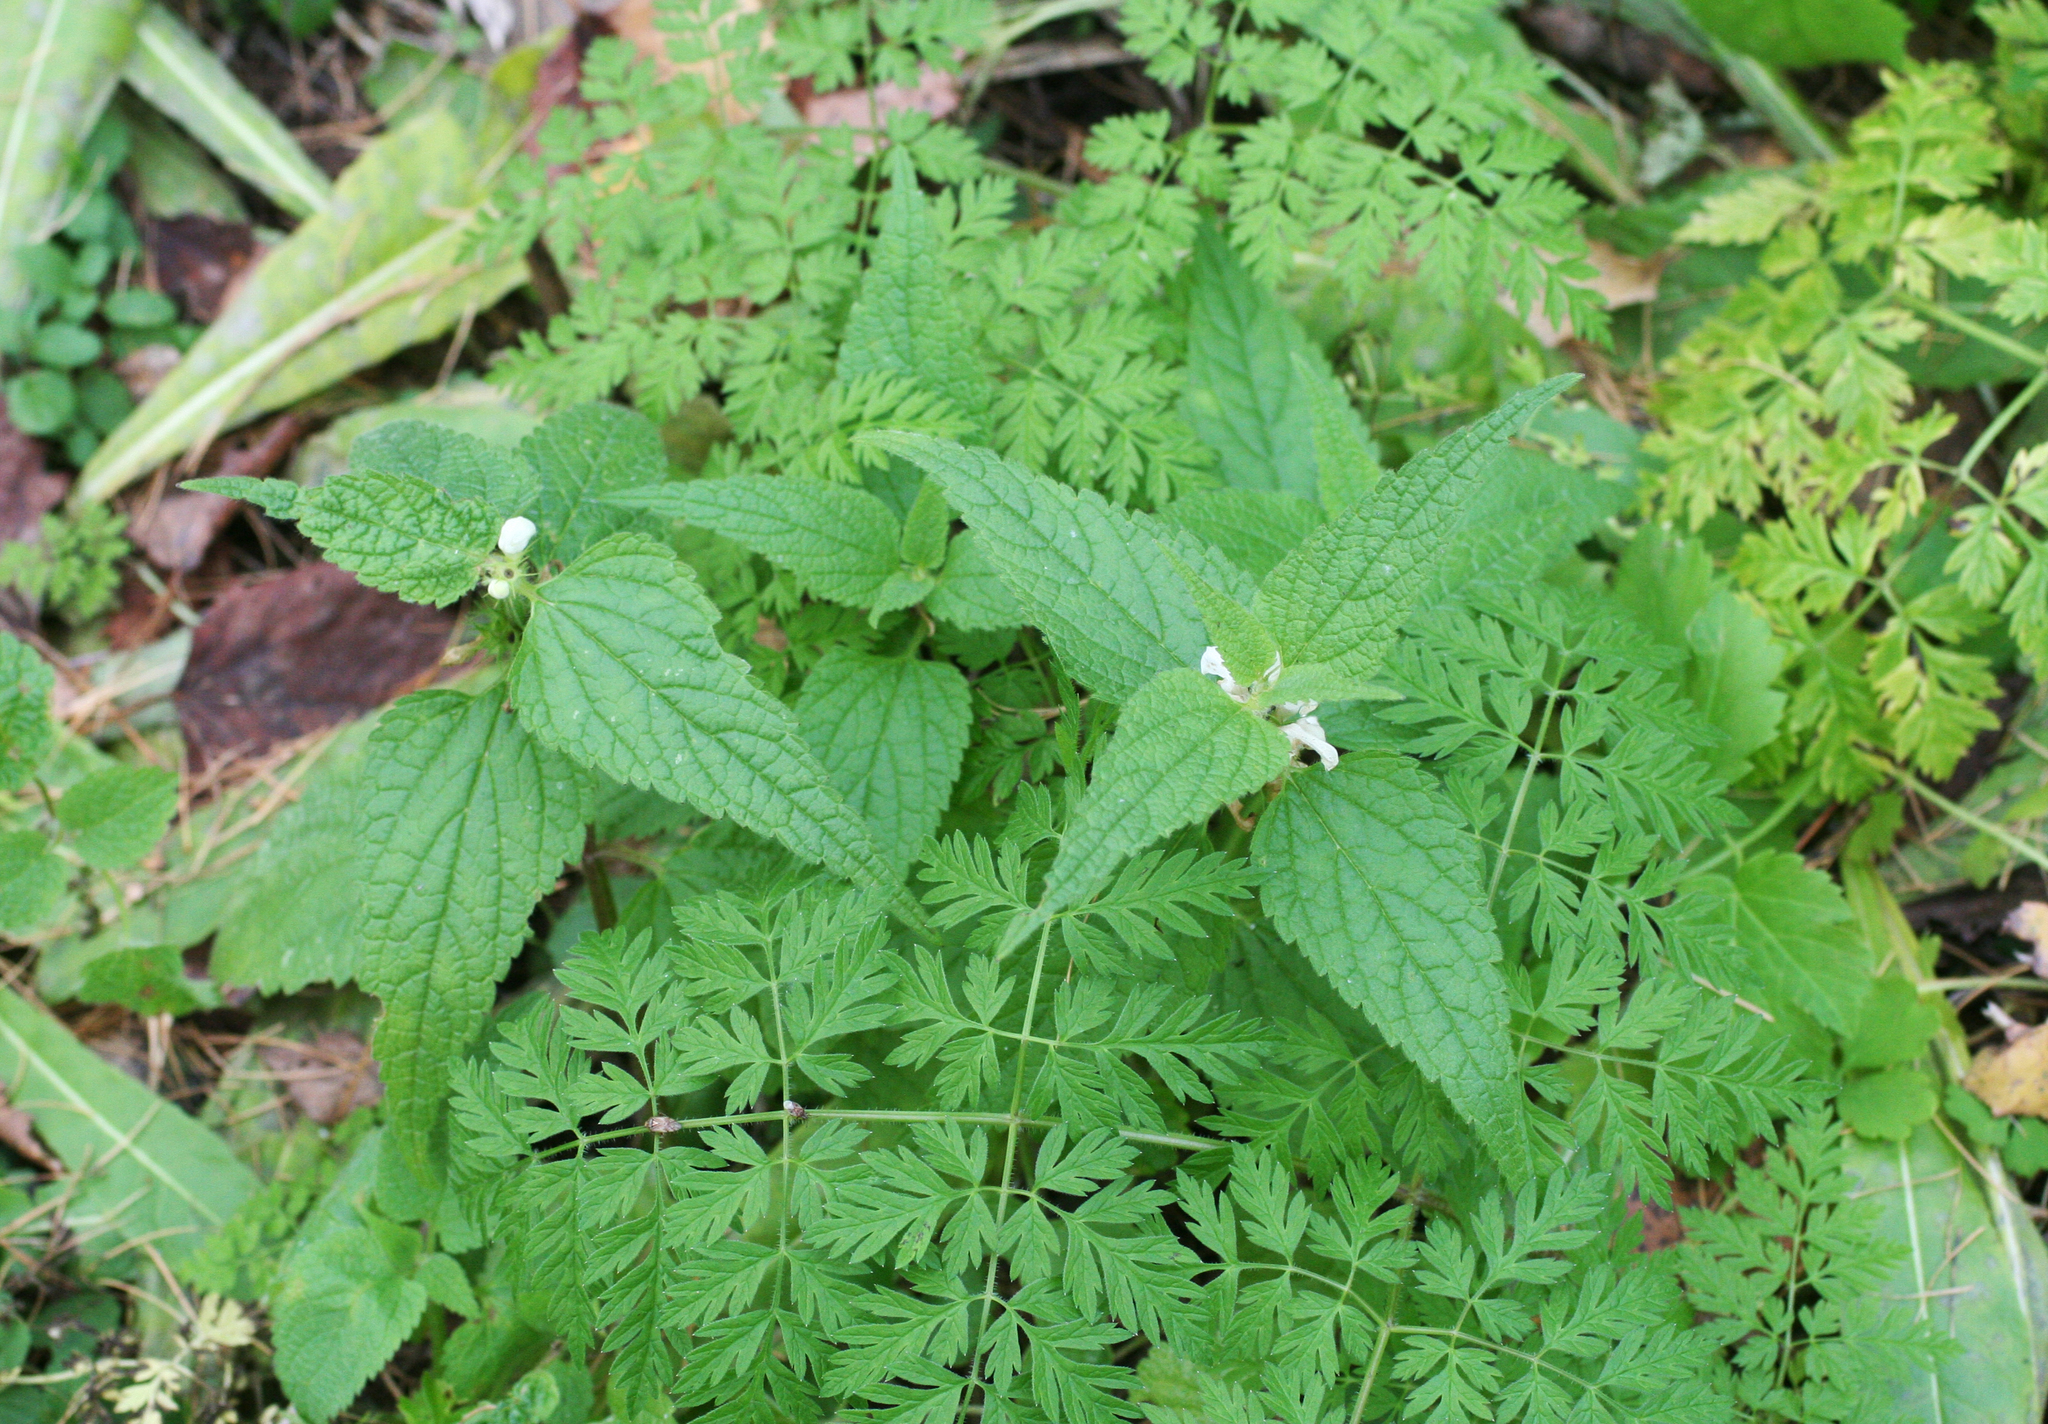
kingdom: Plantae
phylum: Tracheophyta
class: Magnoliopsida
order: Lamiales
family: Lamiaceae
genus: Lamium
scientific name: Lamium album
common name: White dead-nettle
